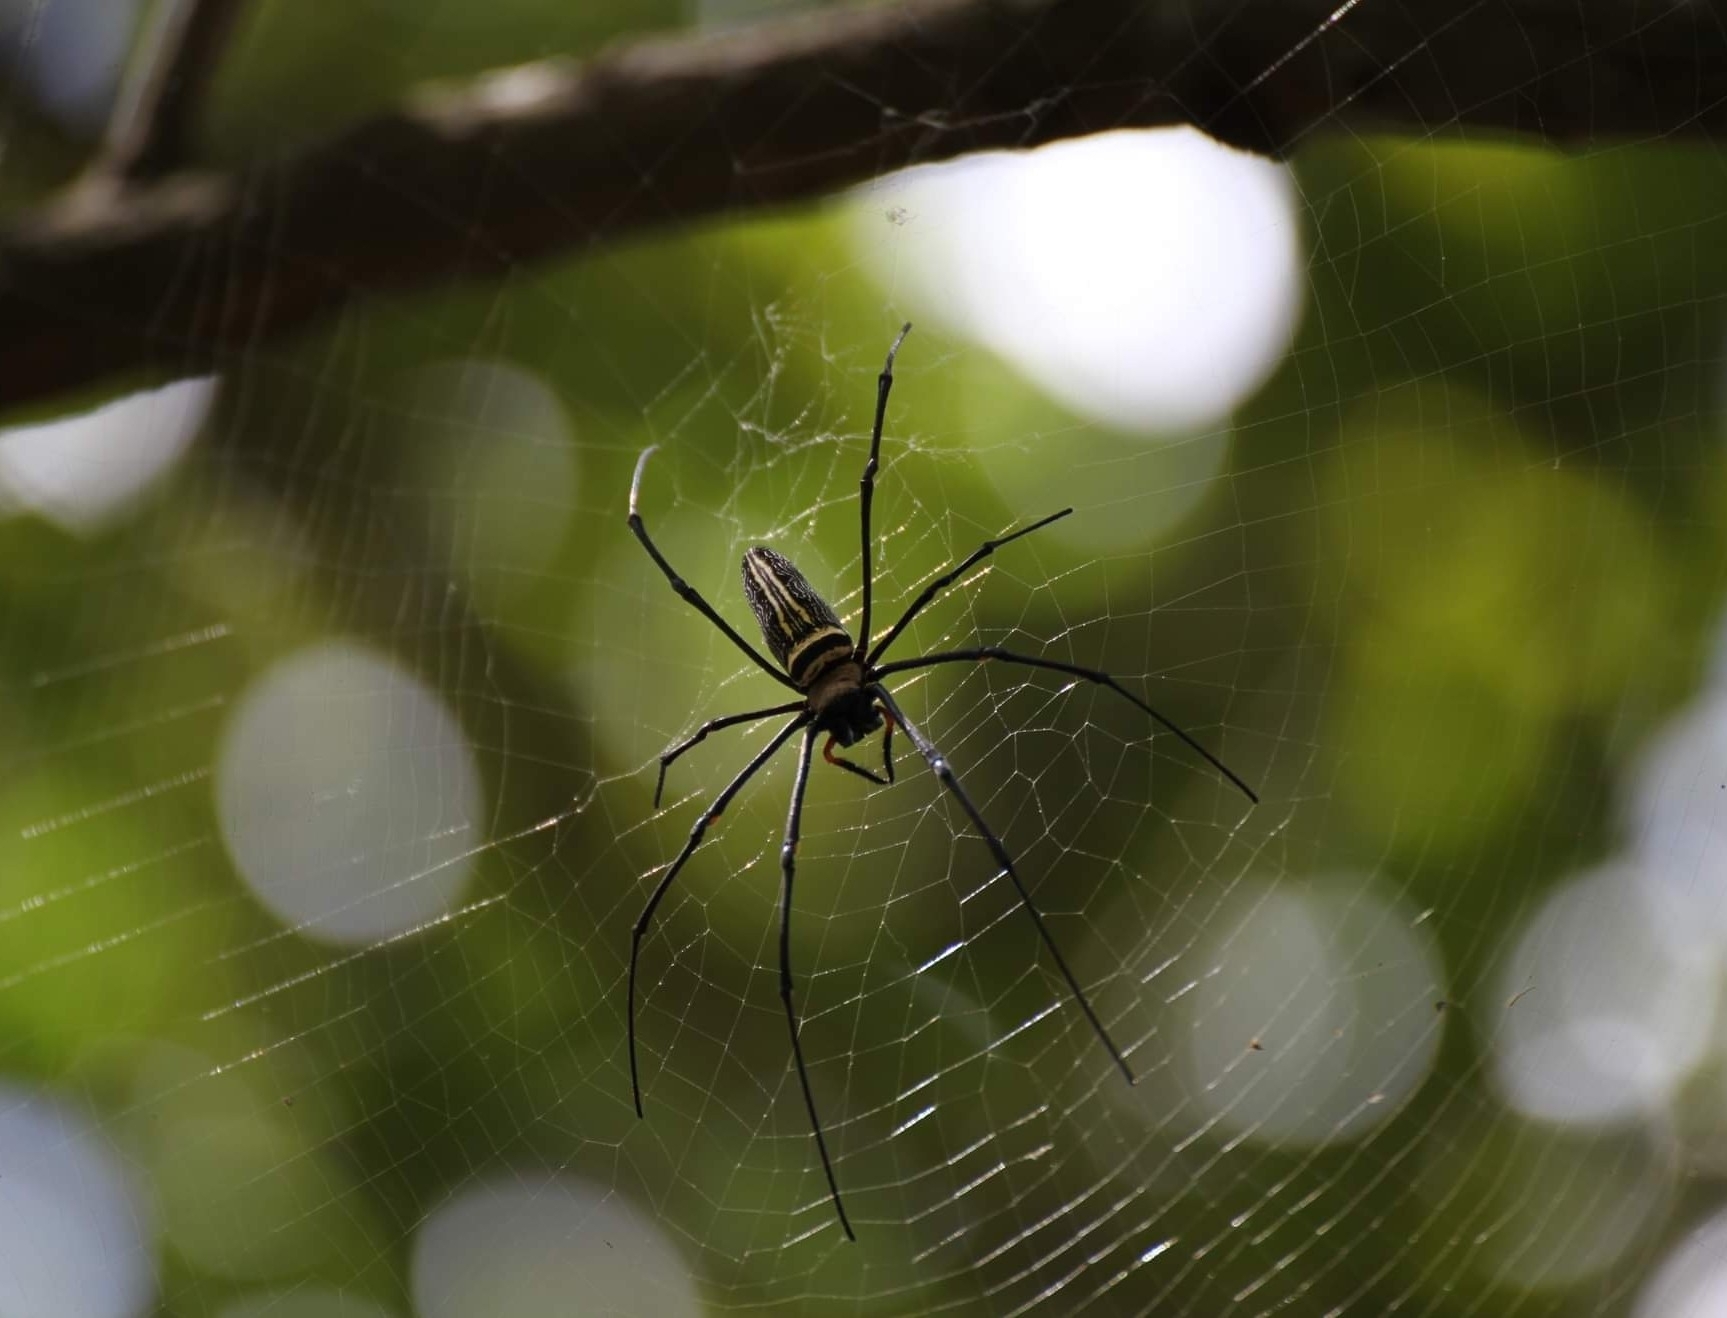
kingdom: Animalia
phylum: Arthropoda
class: Arachnida
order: Araneae
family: Araneidae
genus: Nephila
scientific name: Nephila pilipes
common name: Giant golden orb weaver
